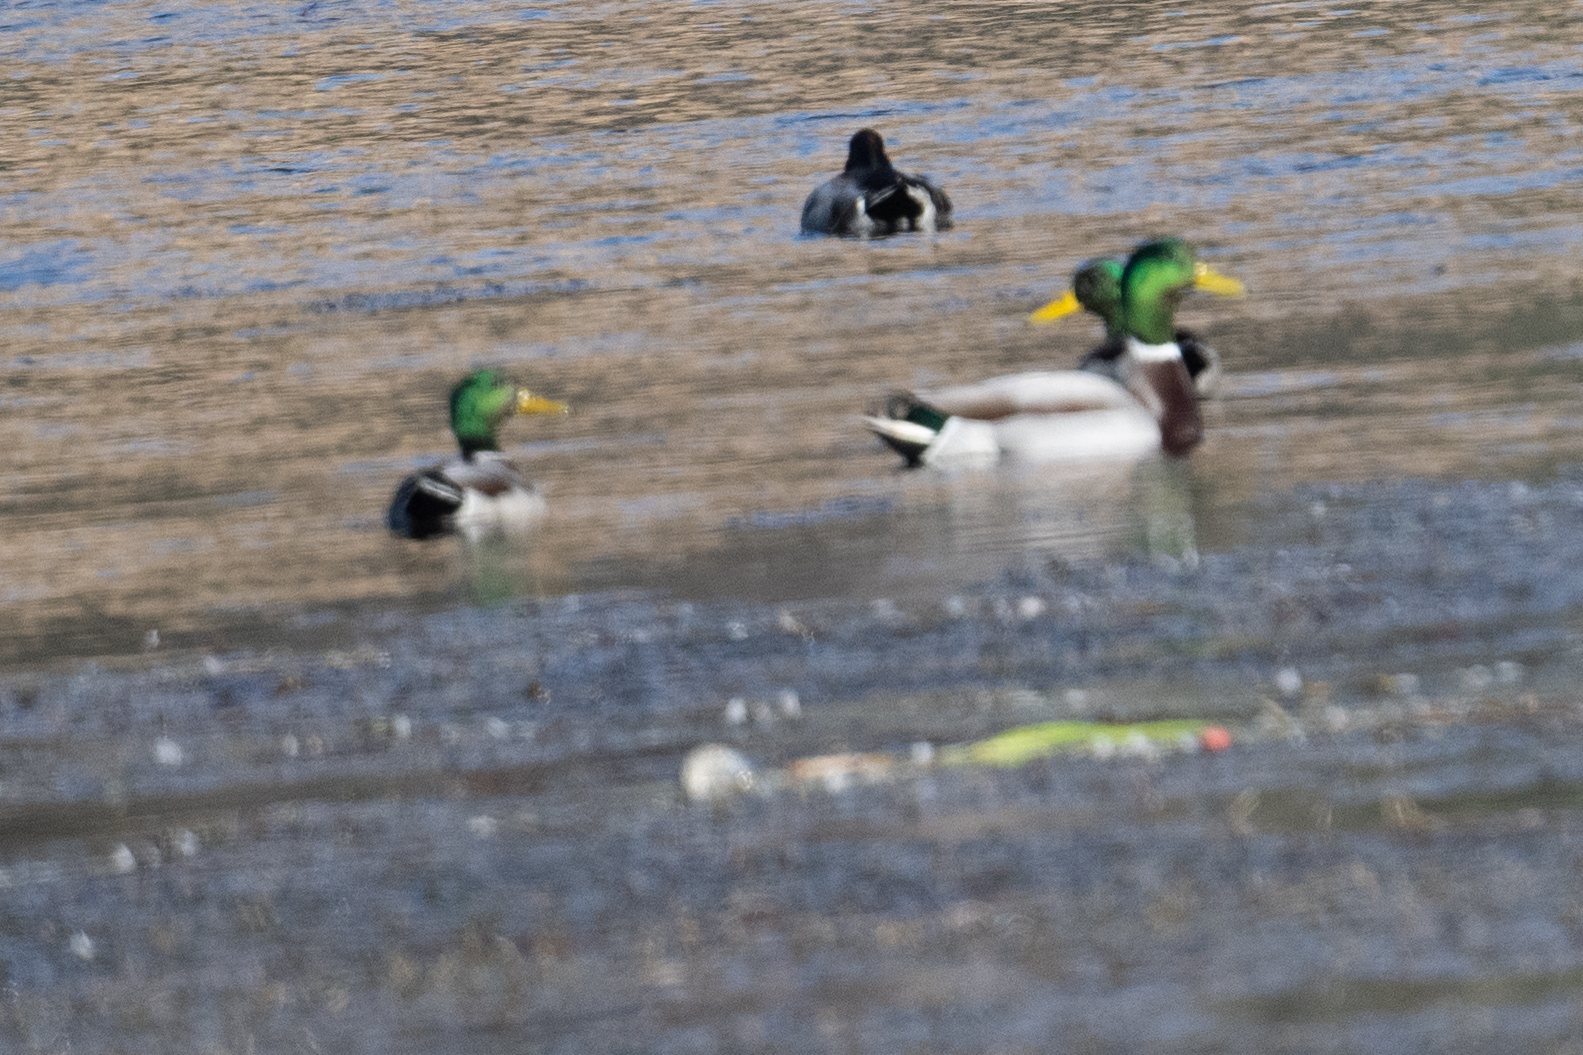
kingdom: Animalia
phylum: Chordata
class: Aves
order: Anseriformes
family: Anatidae
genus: Anas
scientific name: Anas platyrhynchos
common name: Mallard
